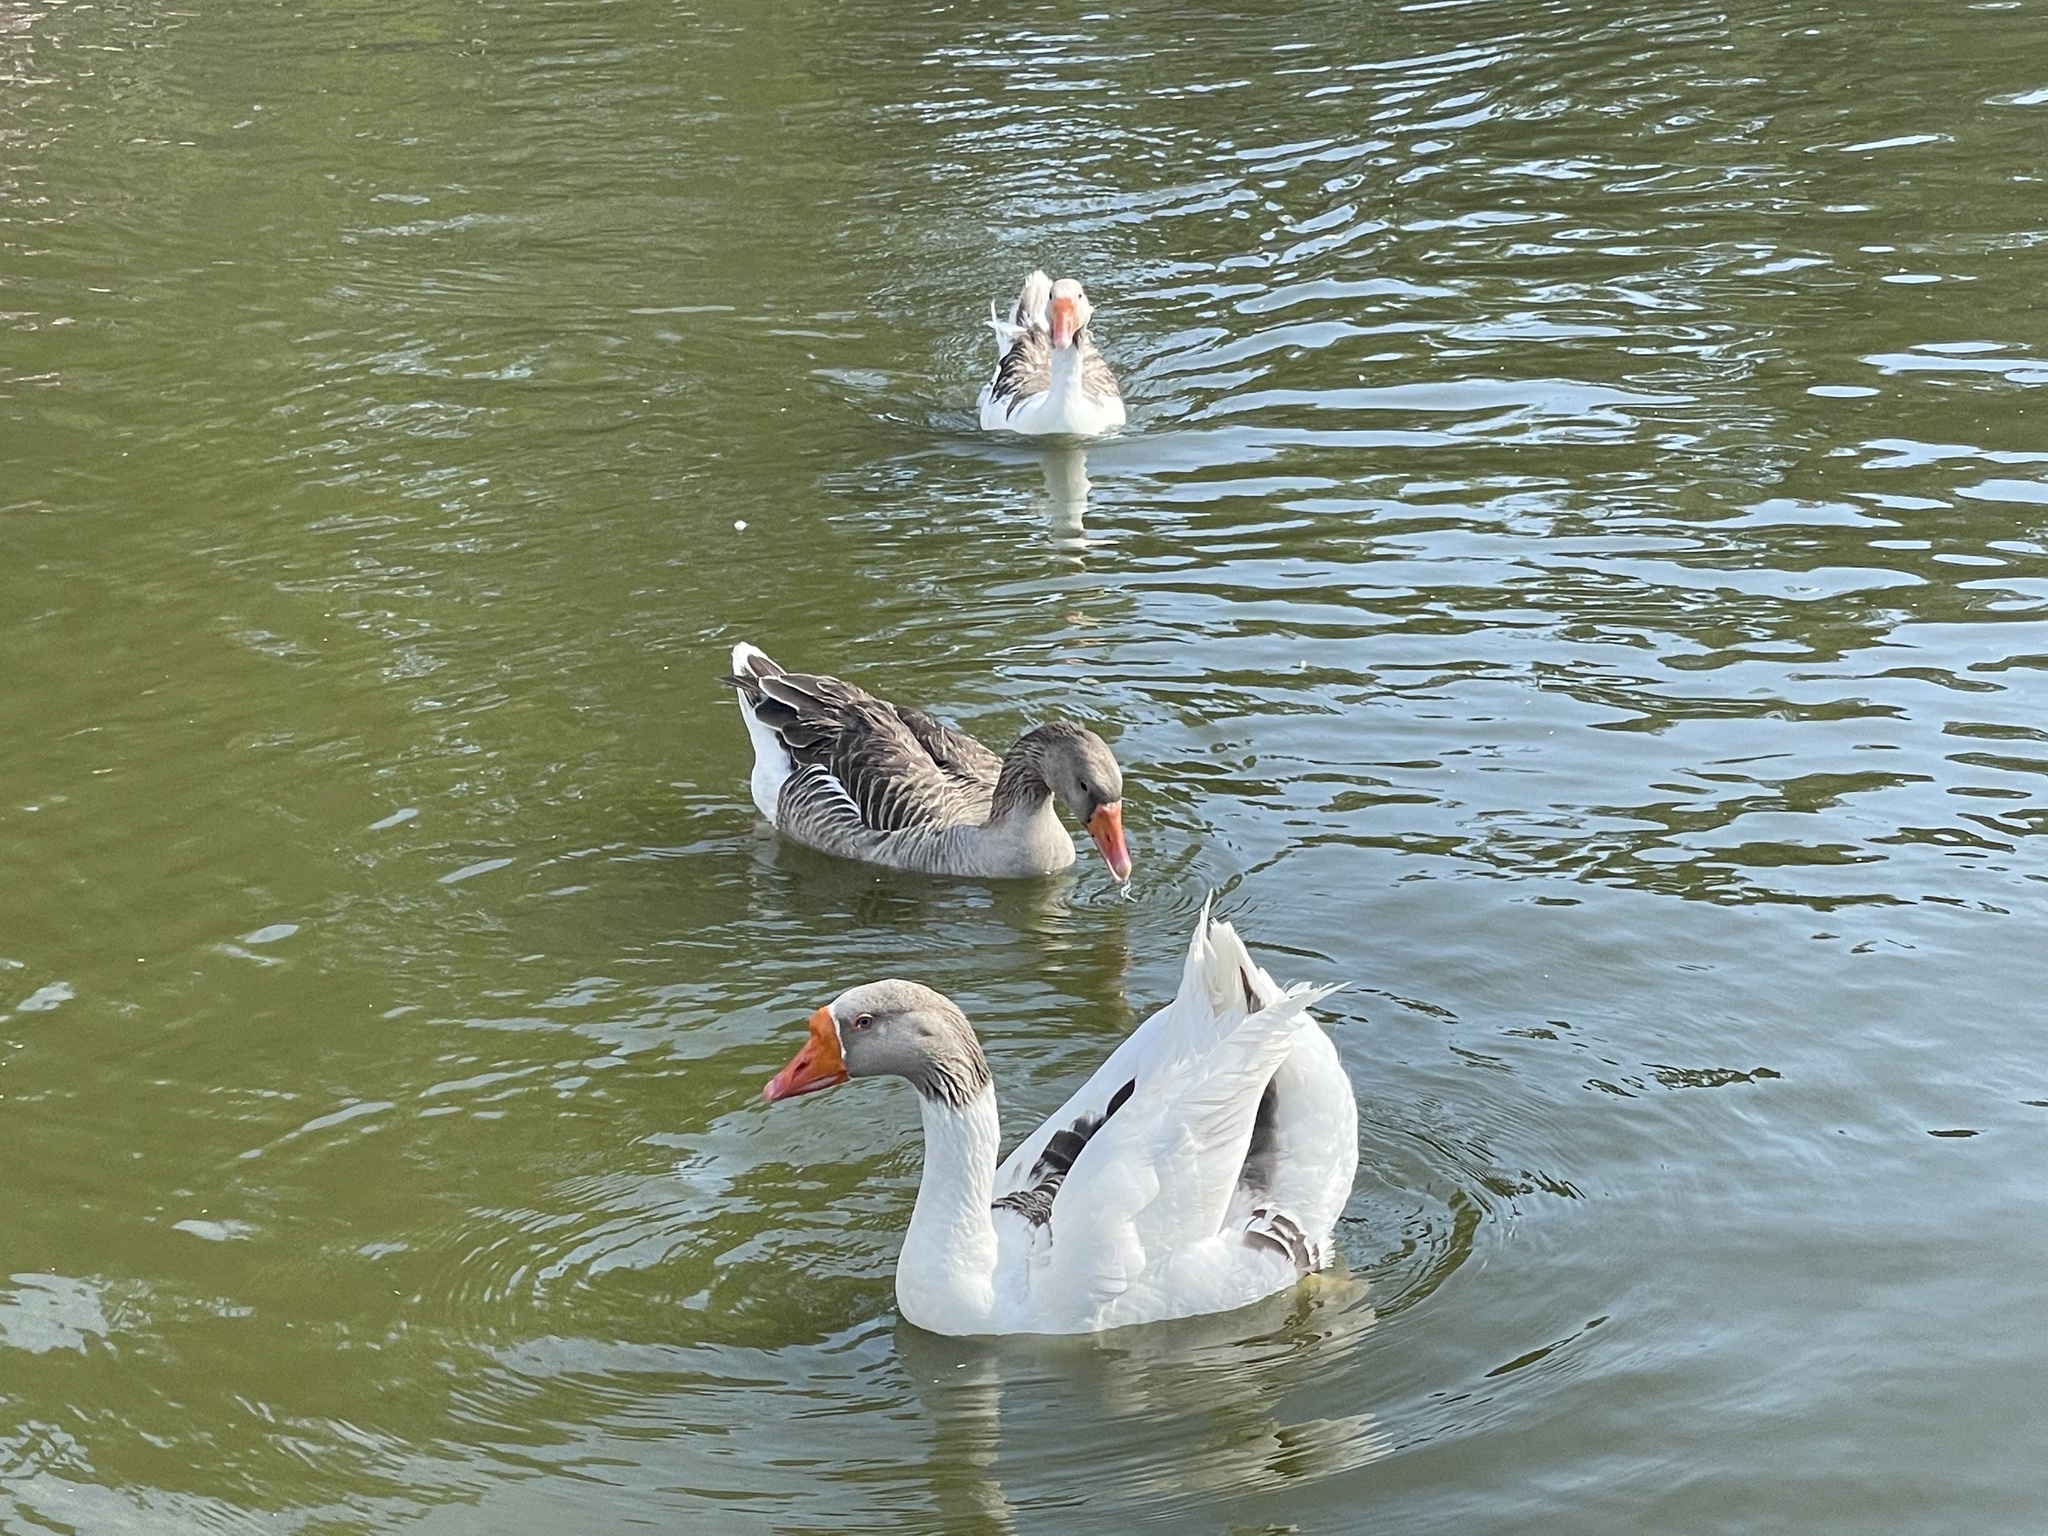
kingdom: Animalia
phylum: Chordata
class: Aves
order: Anseriformes
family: Anatidae
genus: Anser
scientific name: Anser
